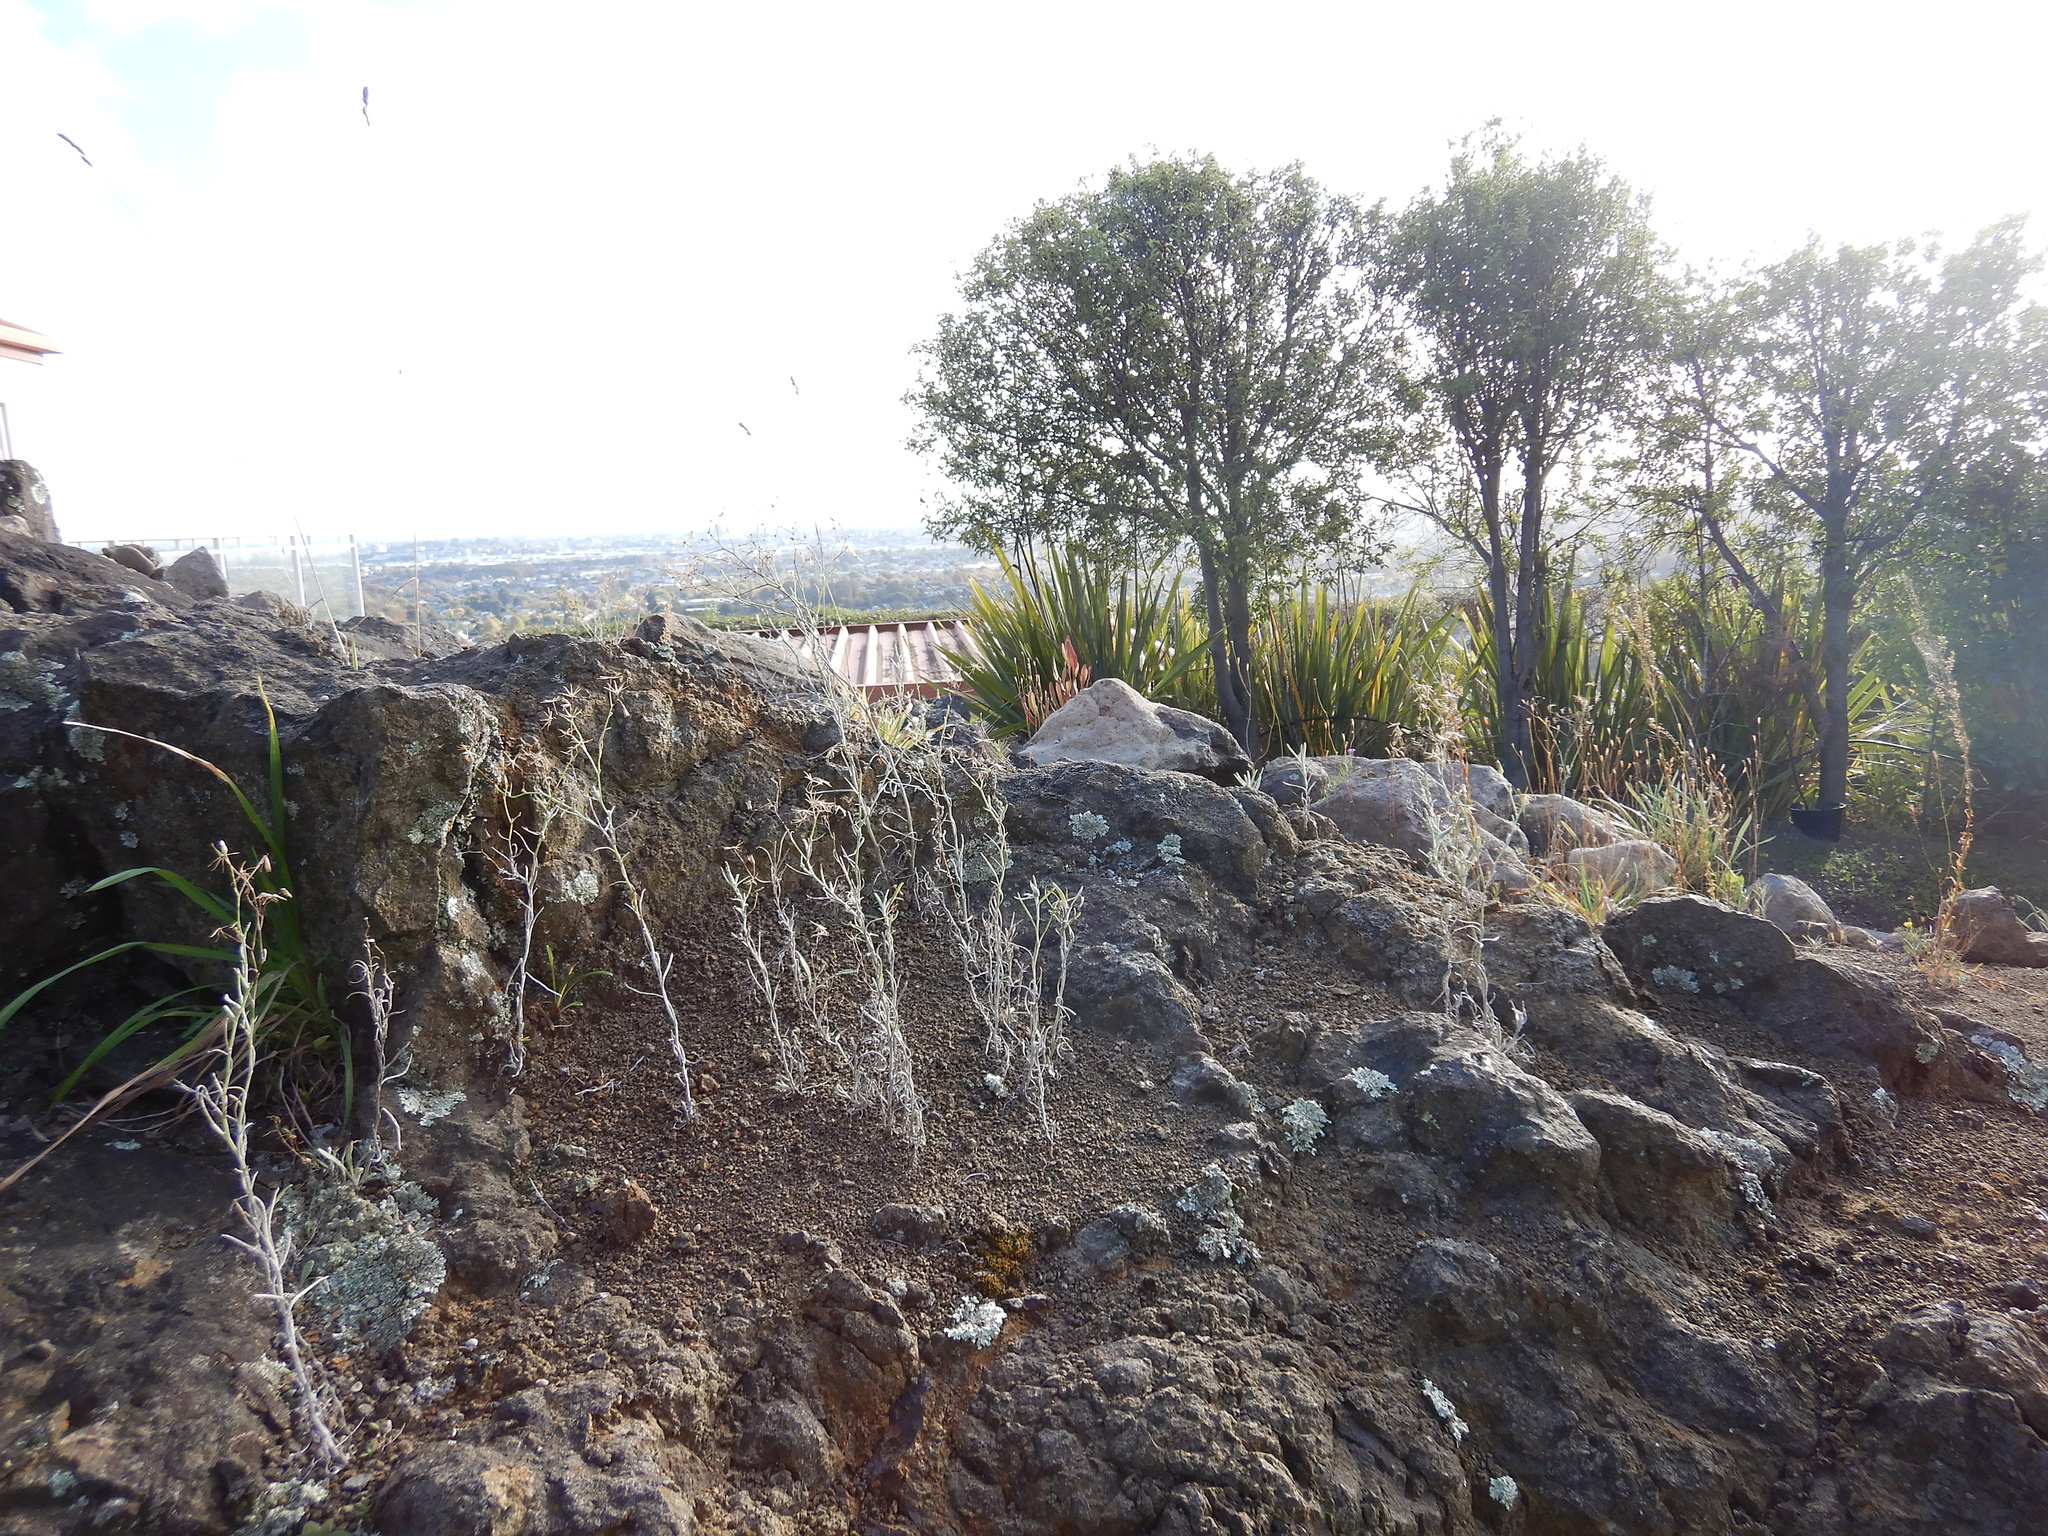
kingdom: Plantae
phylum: Tracheophyta
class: Magnoliopsida
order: Asterales
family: Asteraceae
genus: Senecio
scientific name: Senecio quadridentatus
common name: Cotton fireweed
